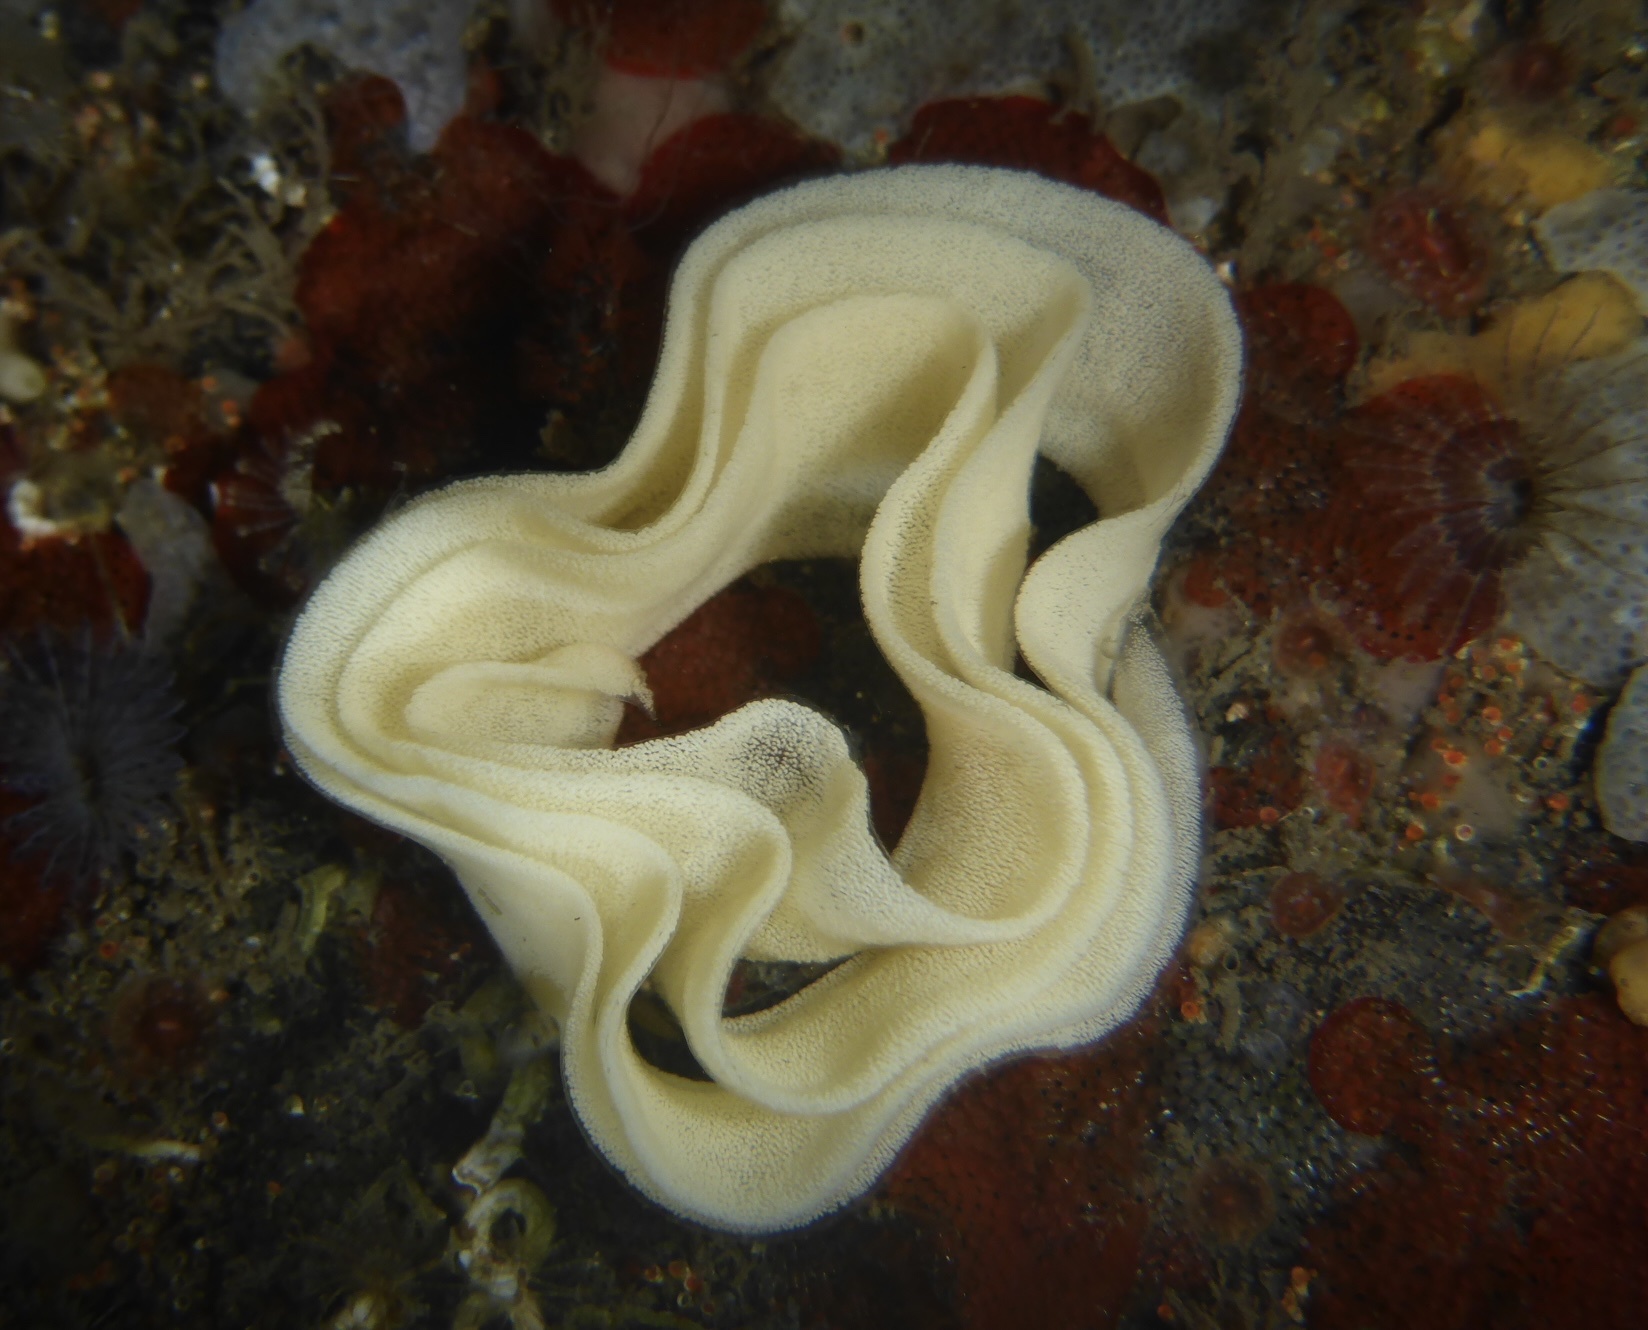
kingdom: Animalia
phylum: Mollusca
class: Gastropoda
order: Nudibranchia
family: Dorididae
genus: Doris
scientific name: Doris montereyensis
